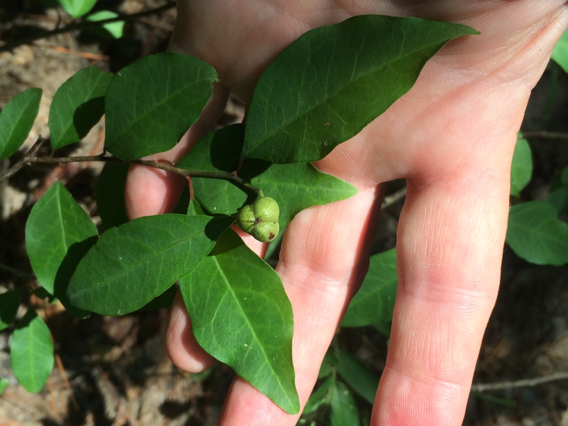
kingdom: Plantae
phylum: Tracheophyta
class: Magnoliopsida
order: Malpighiales
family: Euphorbiaceae
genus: Ditrysinia
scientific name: Ditrysinia fruticosa
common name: Gulf sebastian-bush
